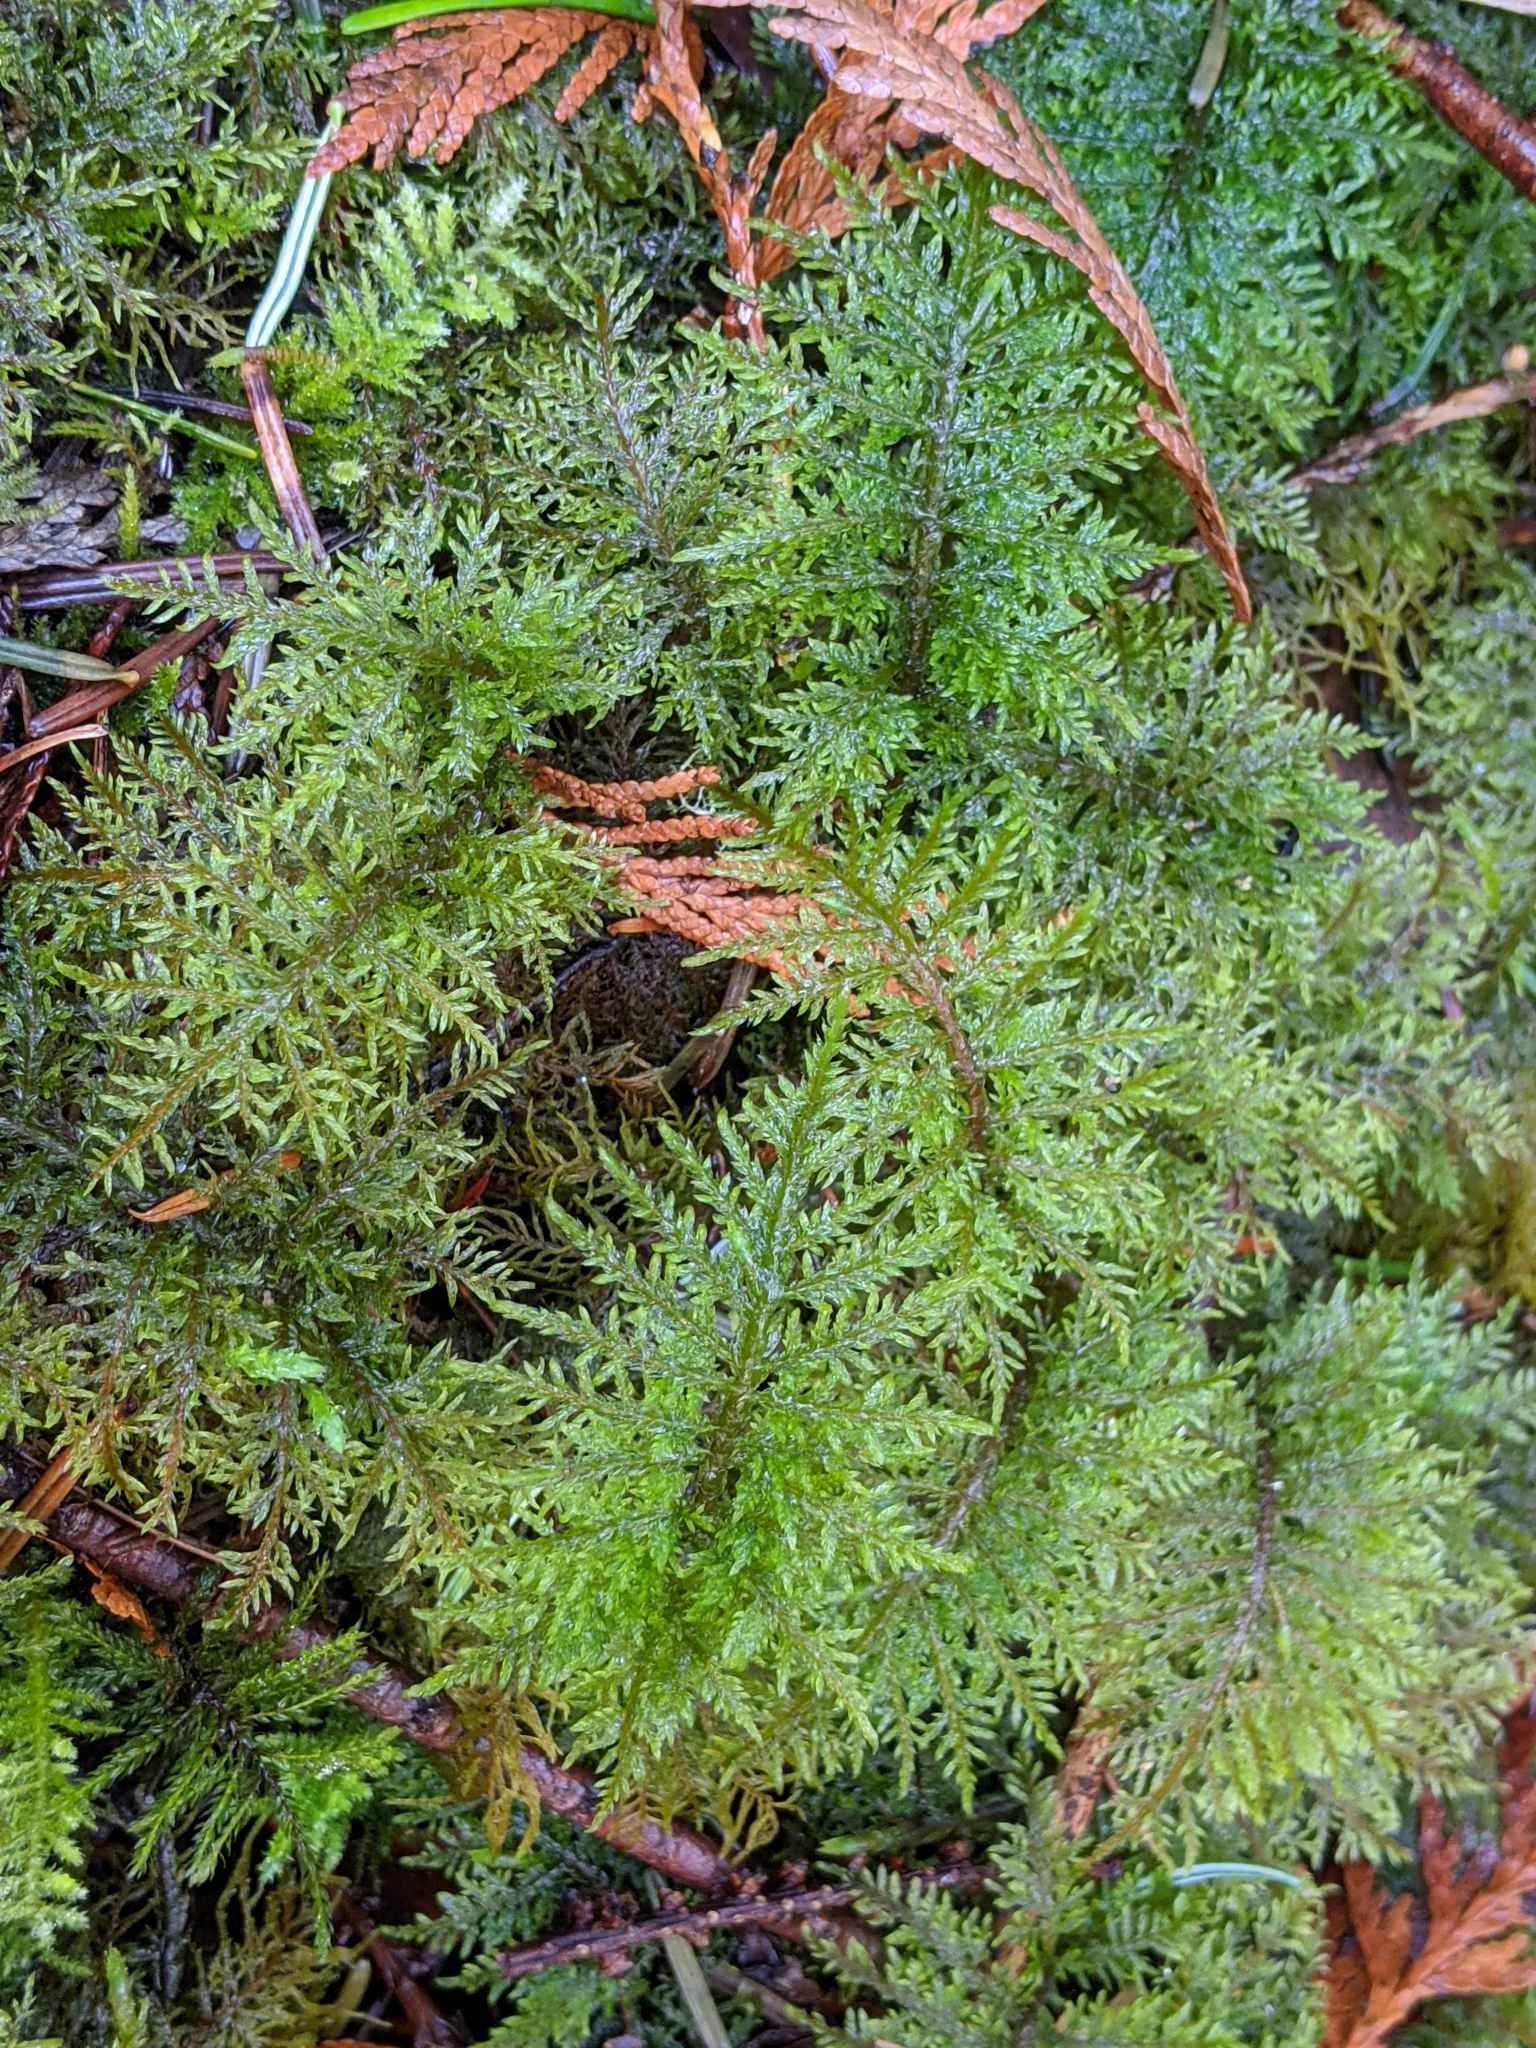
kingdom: Plantae
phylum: Bryophyta
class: Bryopsida
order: Hypnales
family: Hylocomiaceae
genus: Hylocomium
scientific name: Hylocomium splendens
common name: Stairstep moss
